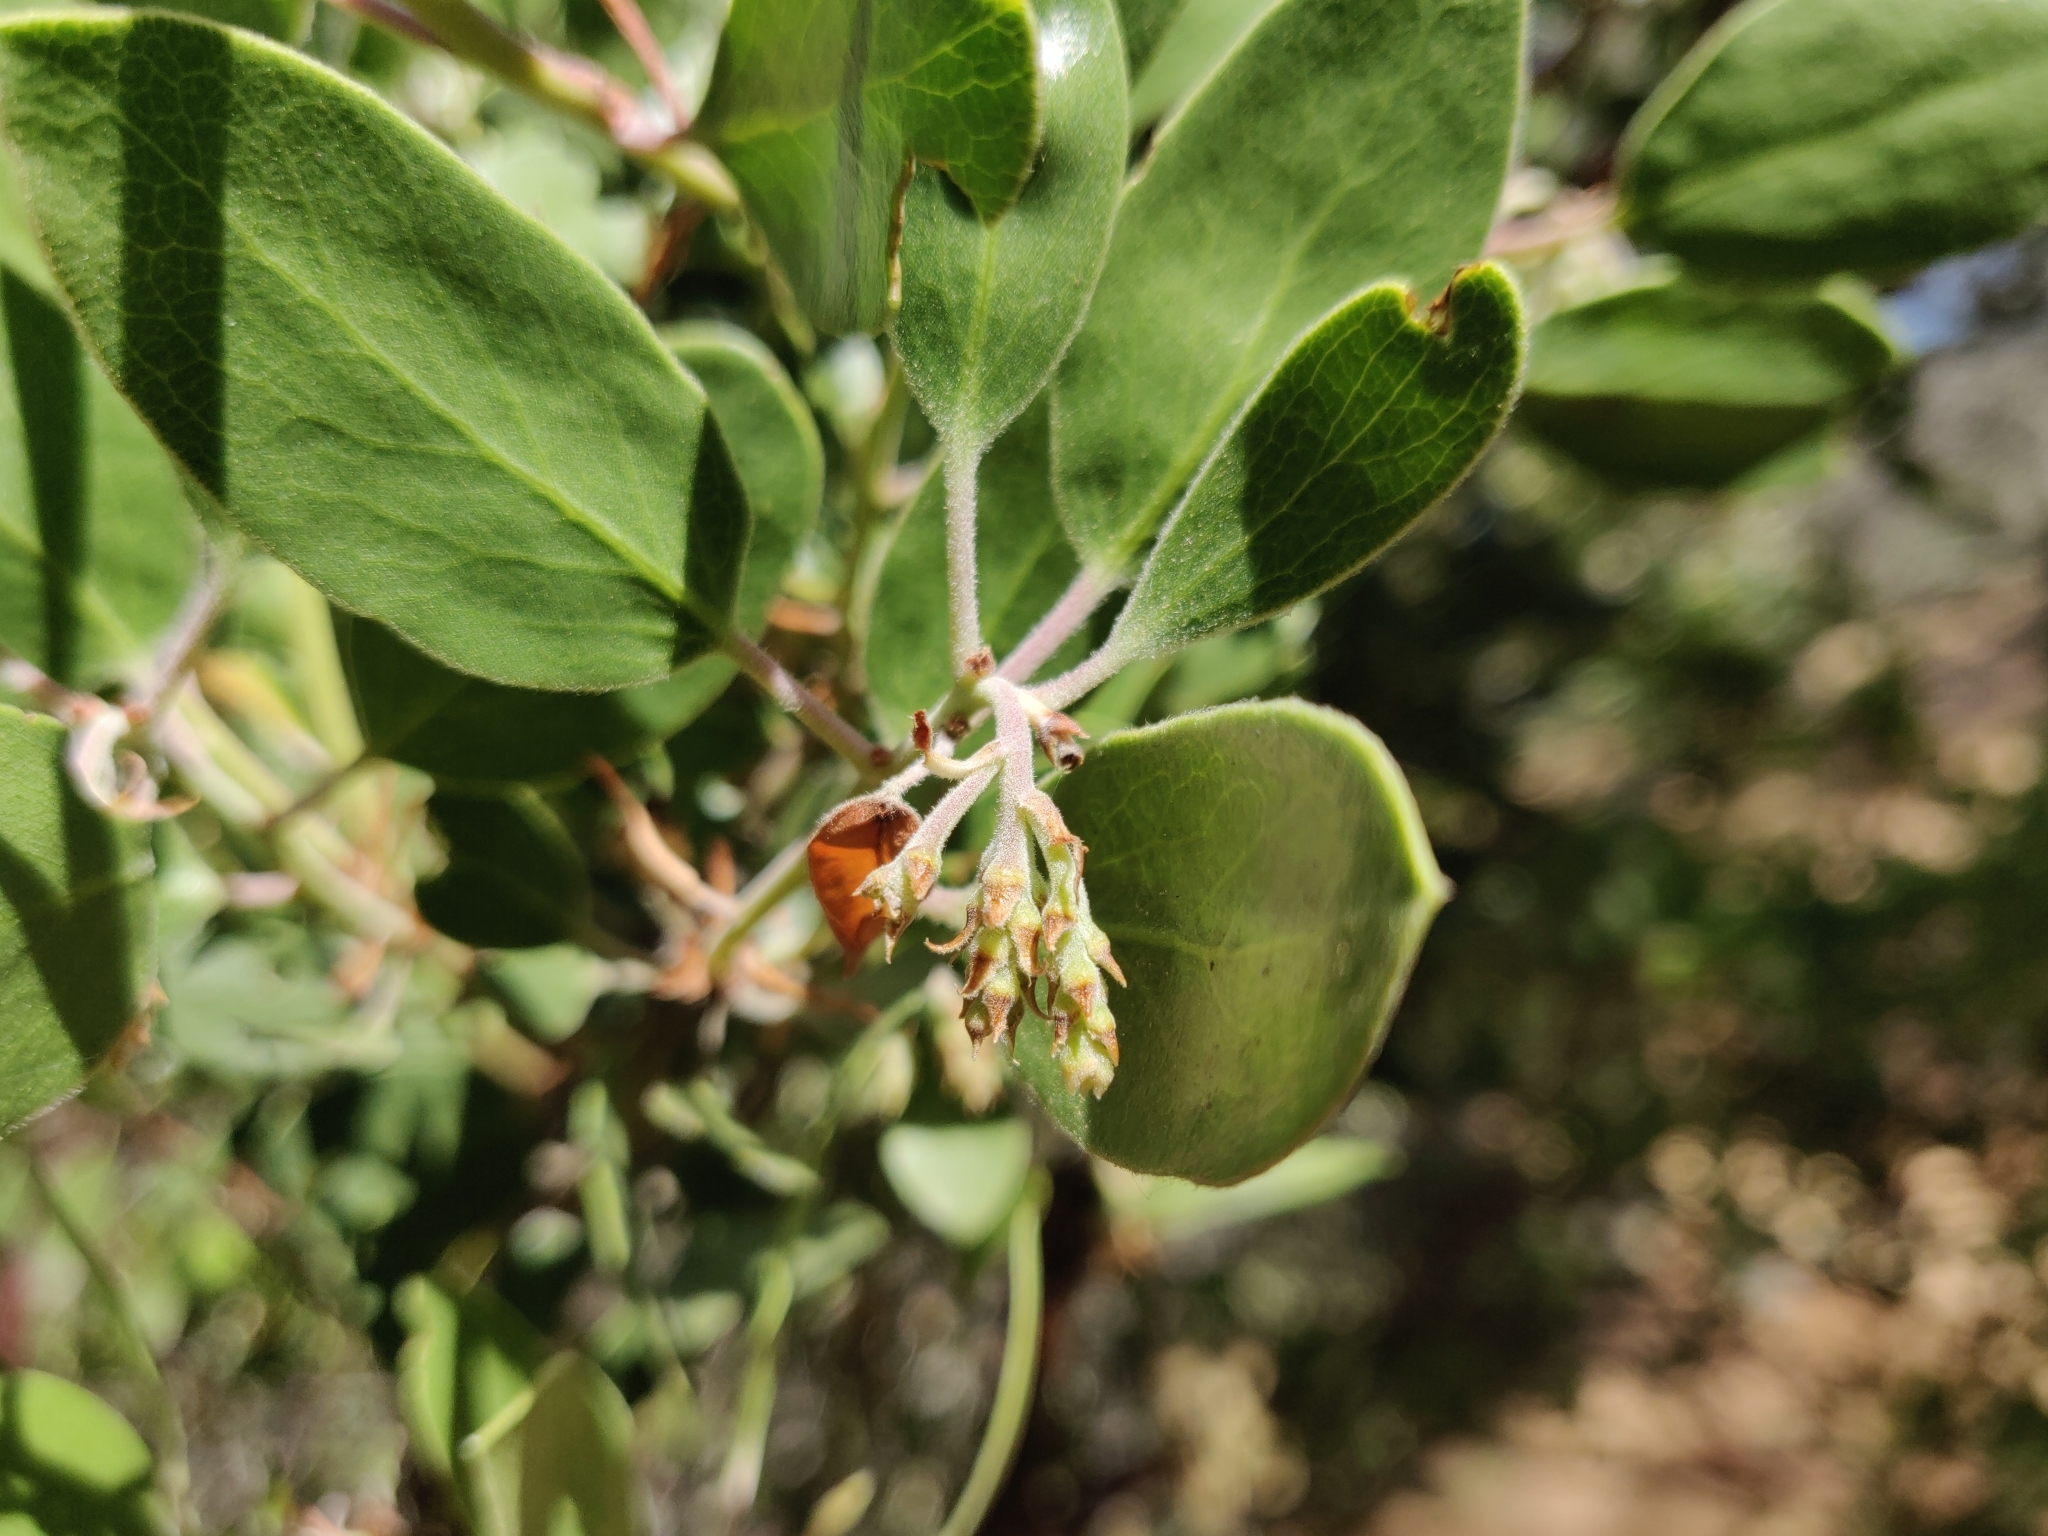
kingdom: Plantae
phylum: Tracheophyta
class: Magnoliopsida
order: Ericales
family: Ericaceae
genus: Arctostaphylos
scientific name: Arctostaphylos manzanita
